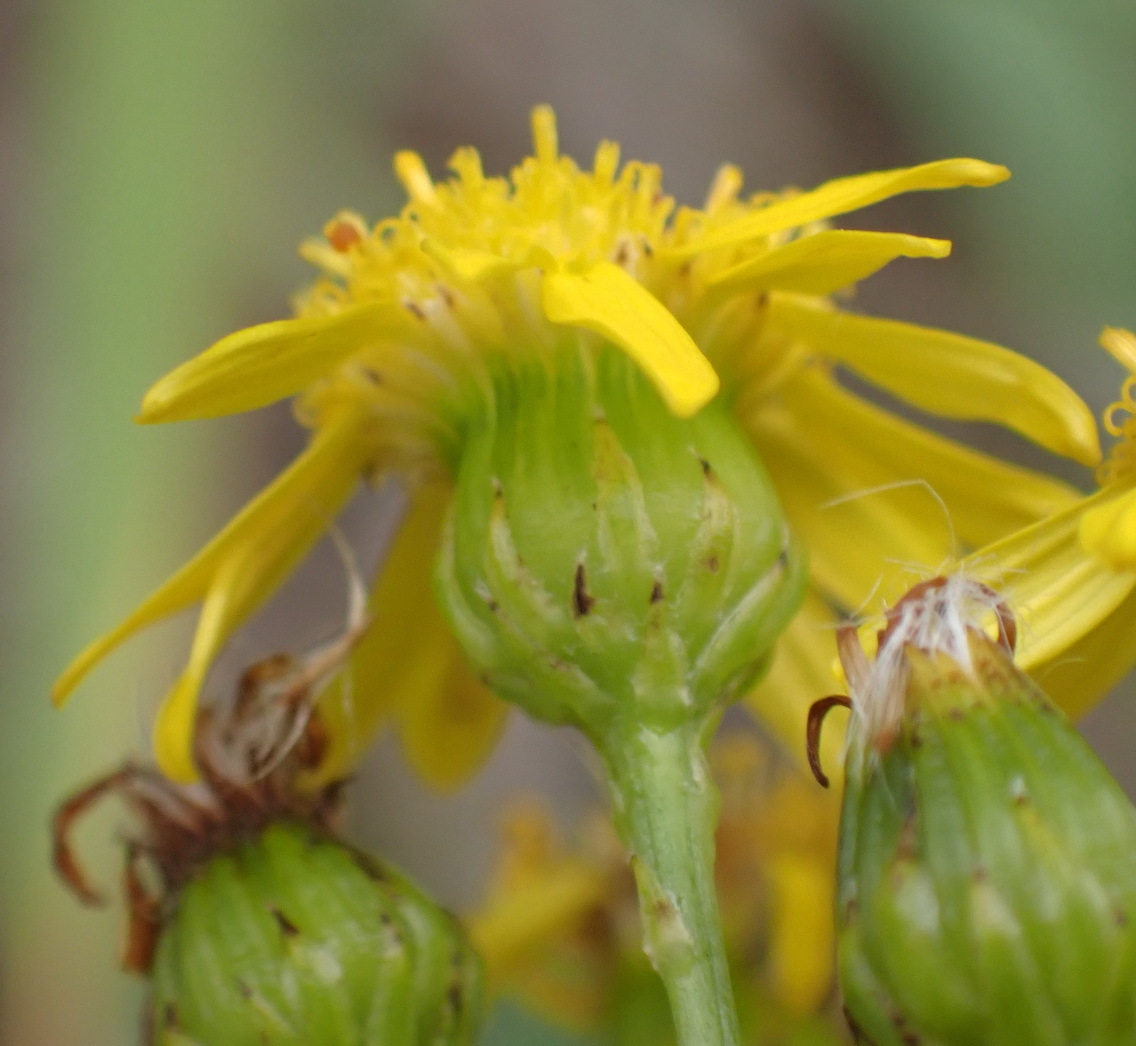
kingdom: Plantae
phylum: Tracheophyta
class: Magnoliopsida
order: Asterales
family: Asteraceae
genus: Senecio
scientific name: Senecio ilicifolius
